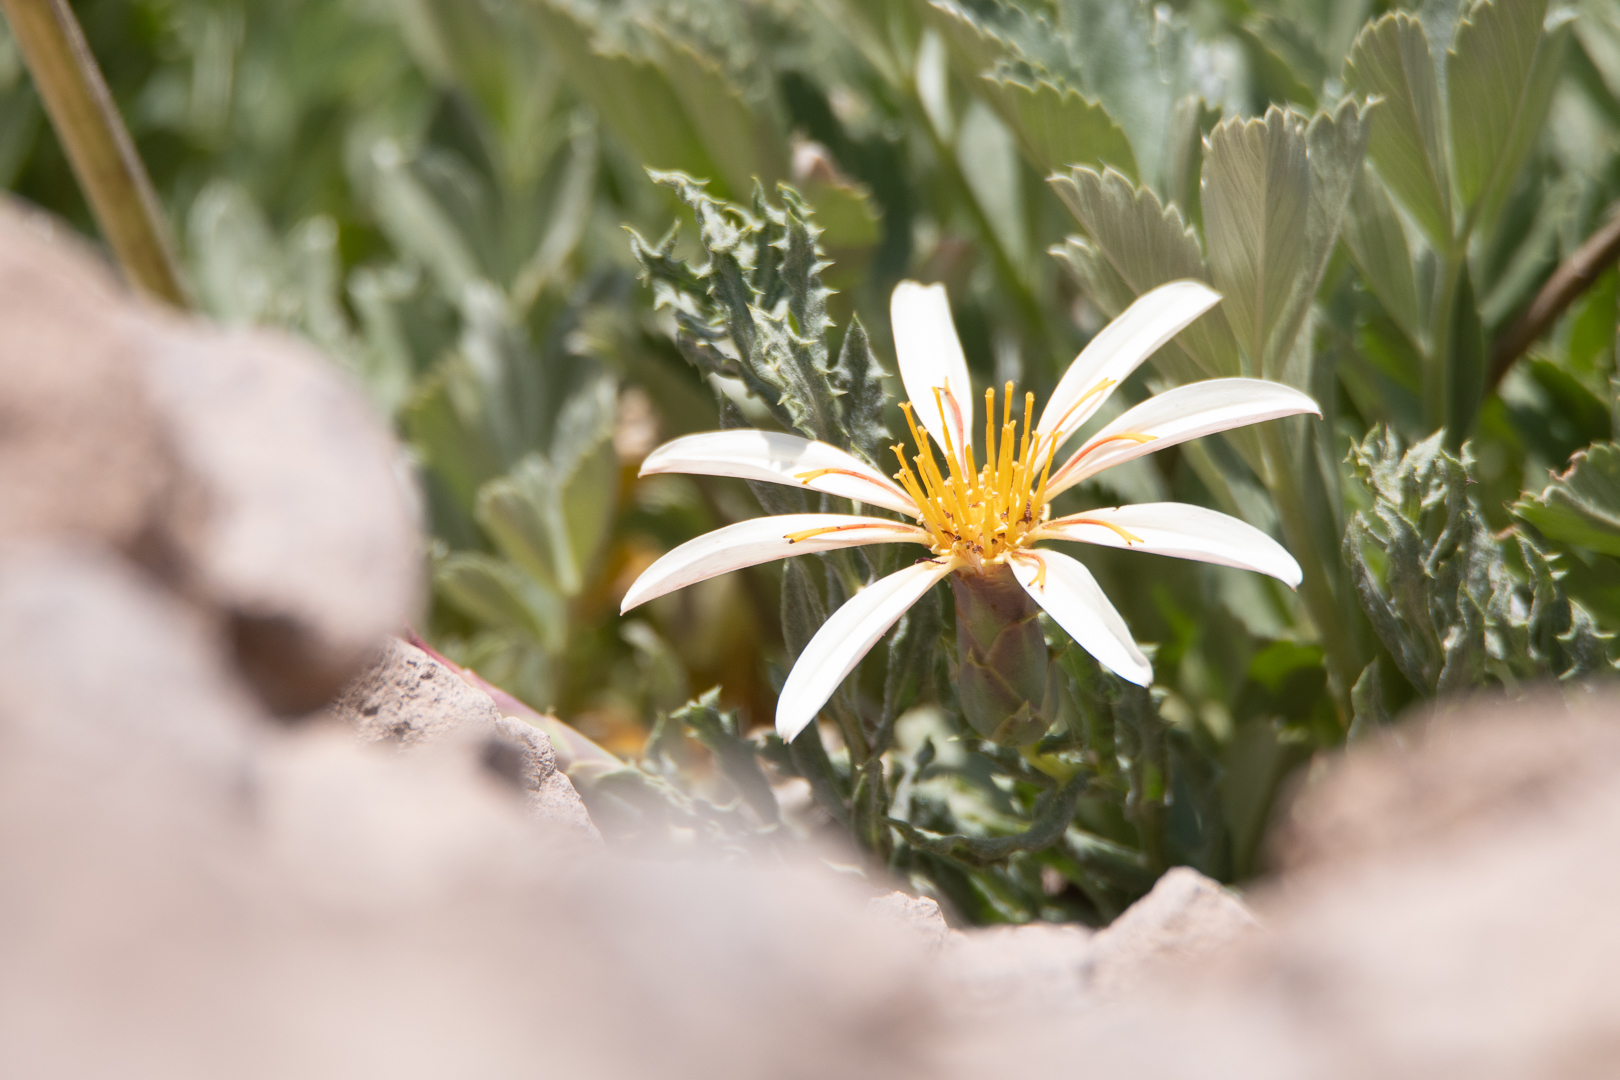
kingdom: Plantae
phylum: Tracheophyta
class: Magnoliopsida
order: Asterales
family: Asteraceae
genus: Mutisia
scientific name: Mutisia sinuata
